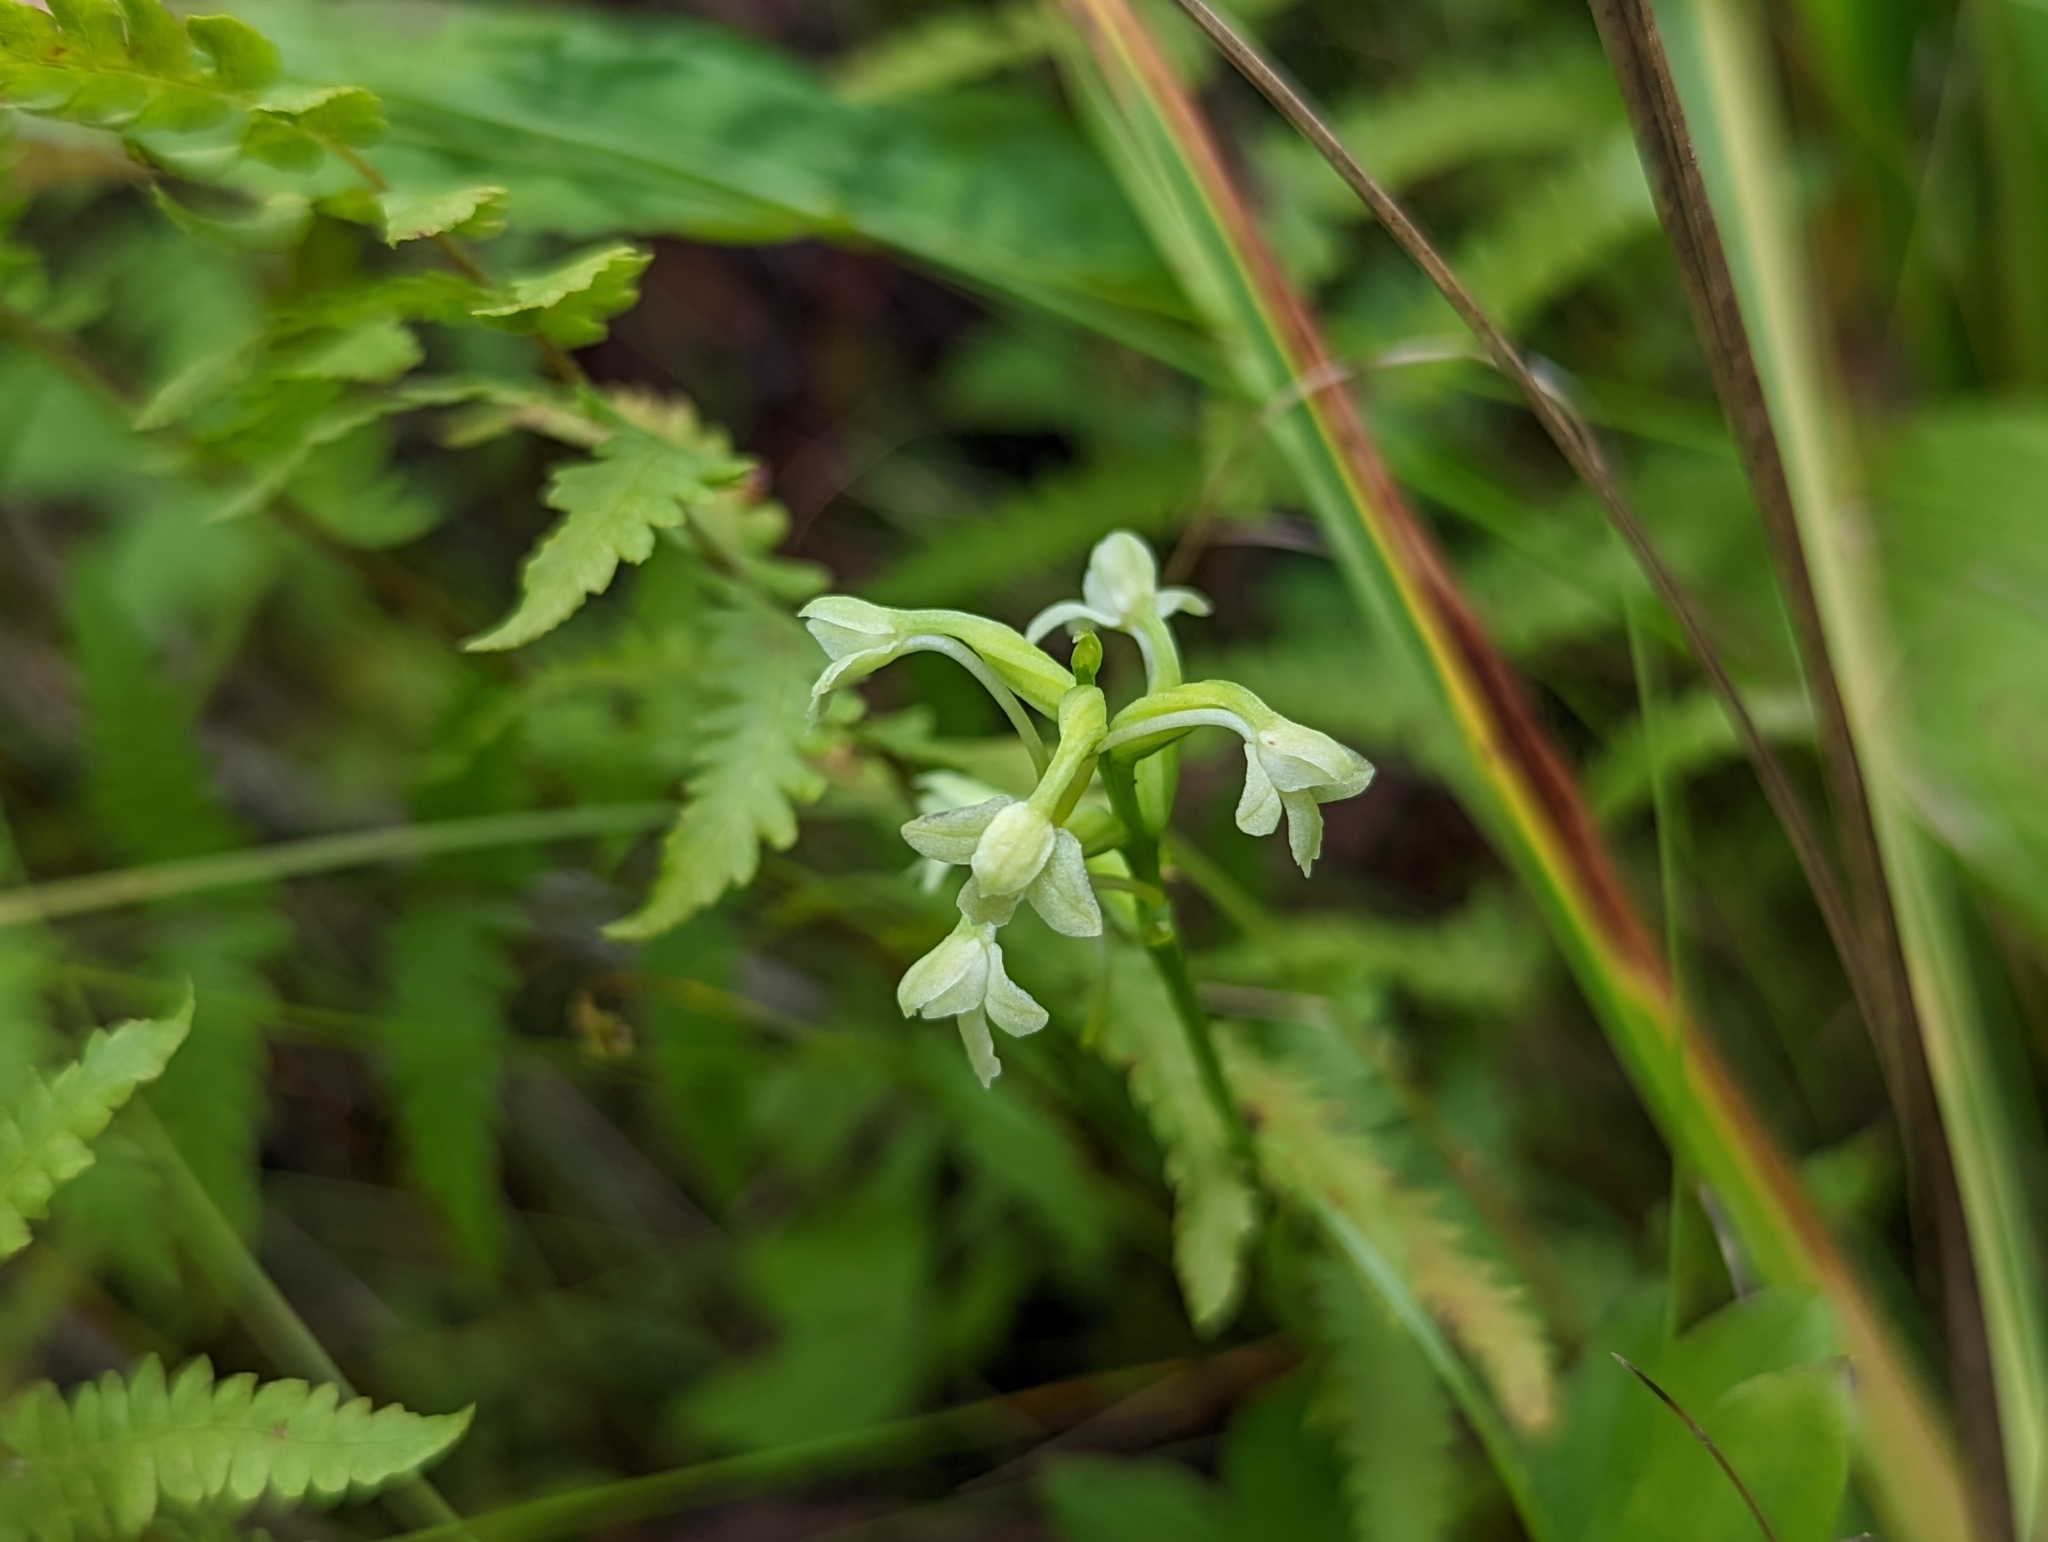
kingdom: Plantae
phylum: Tracheophyta
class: Liliopsida
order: Asparagales
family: Orchidaceae
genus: Platanthera
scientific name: Platanthera clavellata
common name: Club-spur orchid
